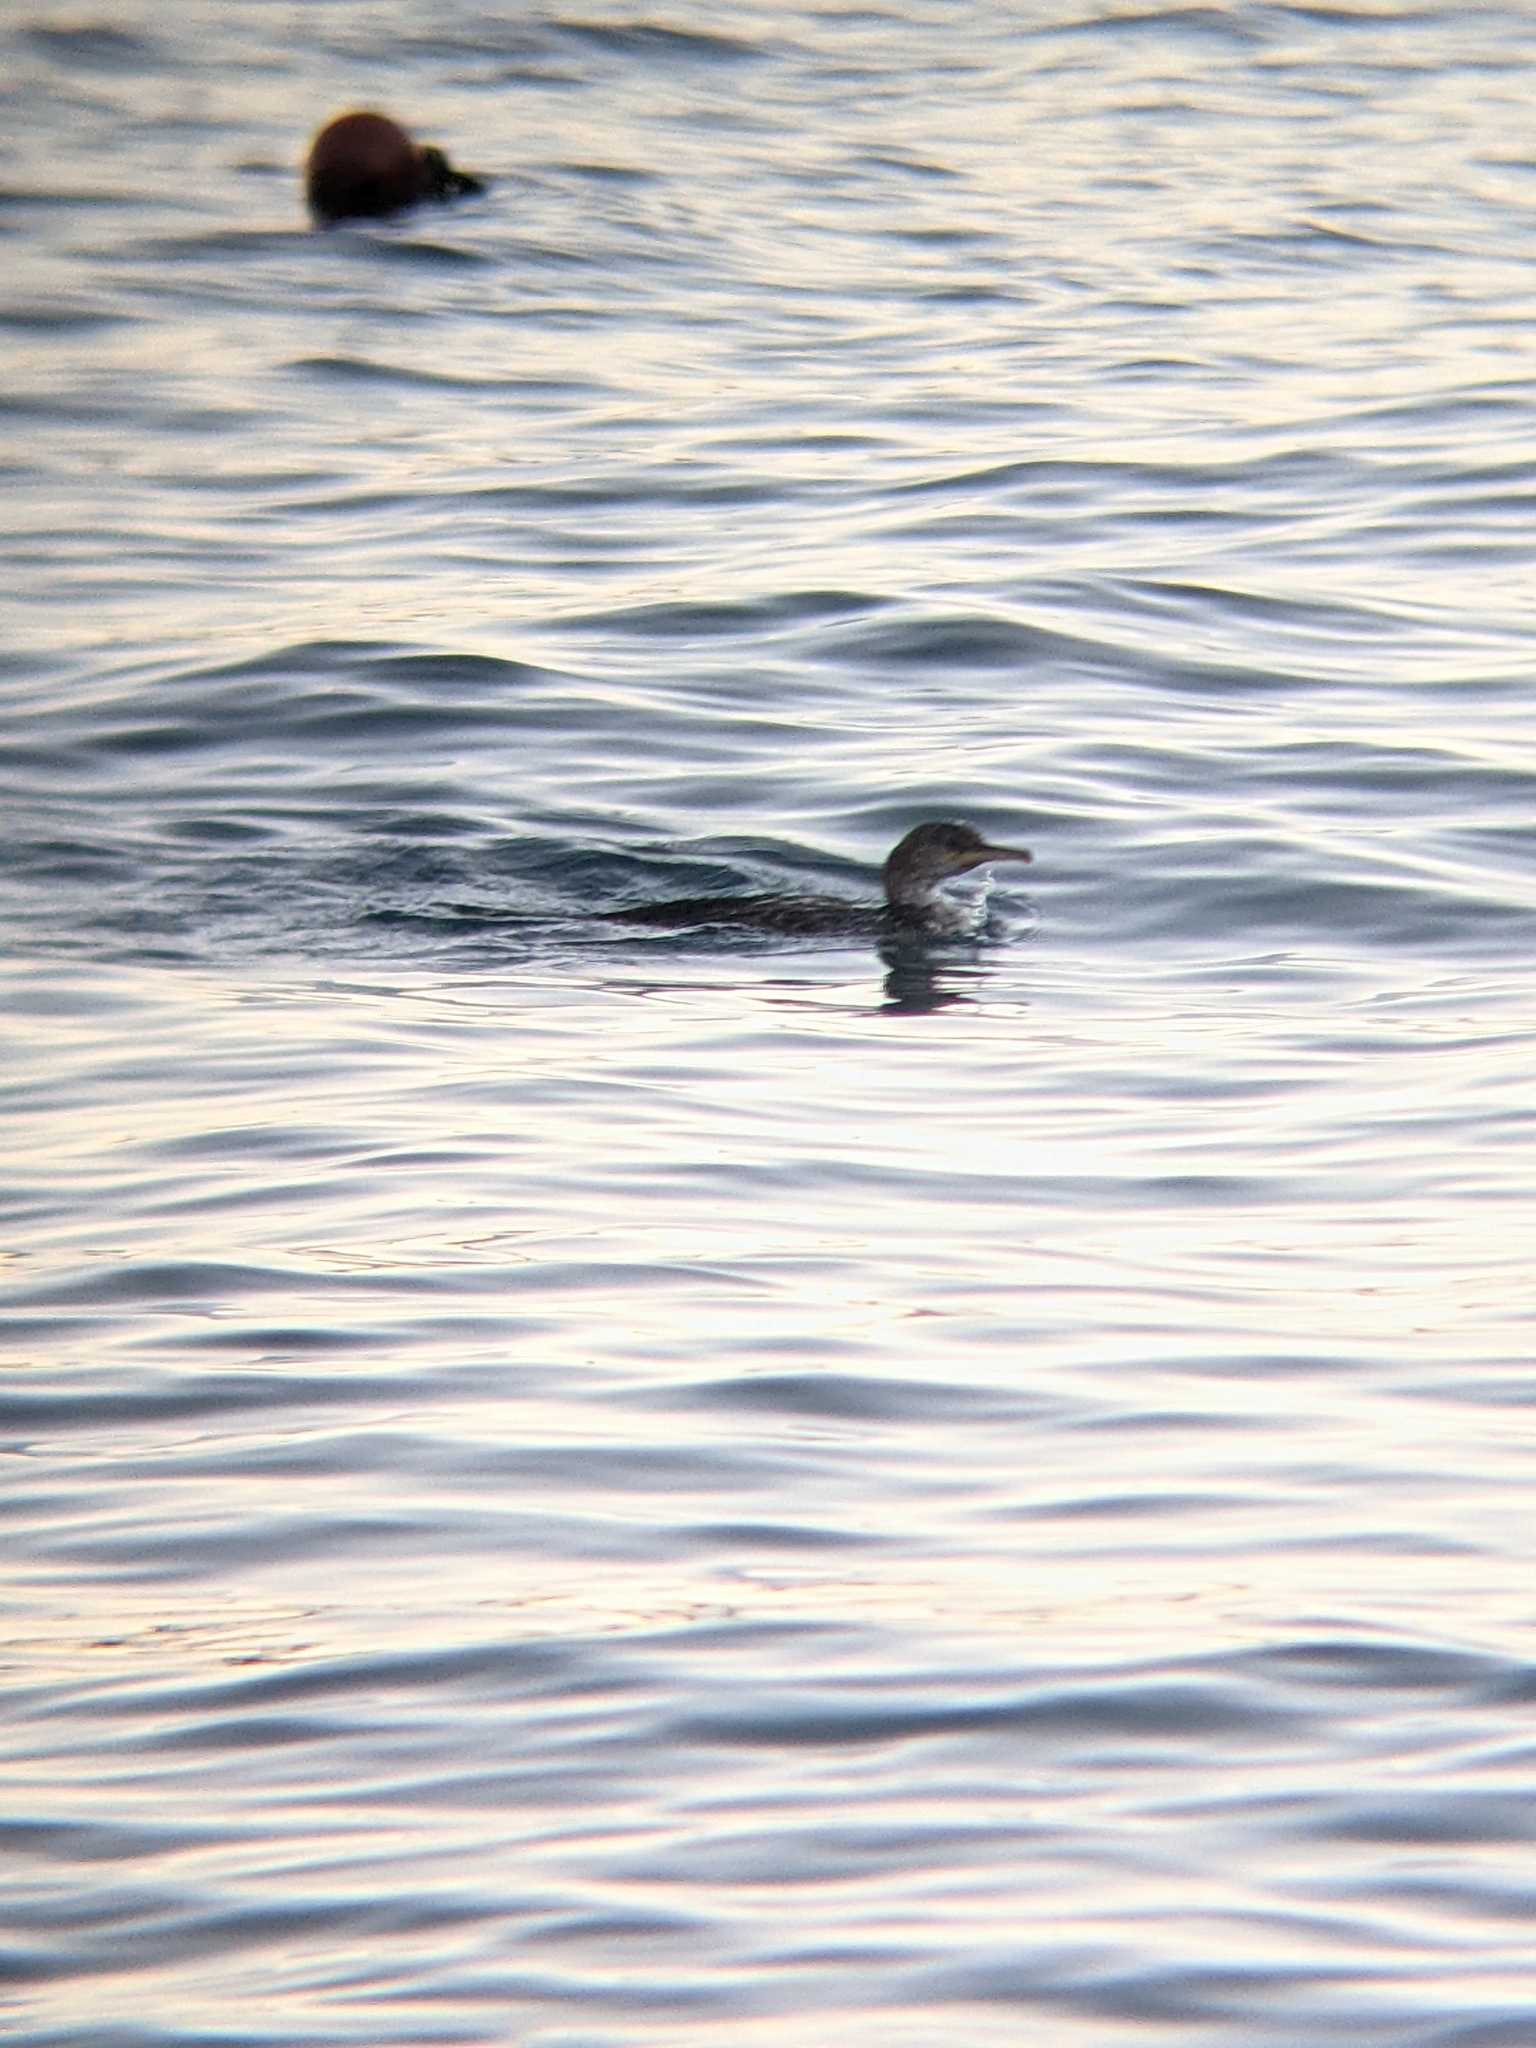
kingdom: Animalia
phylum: Chordata
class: Aves
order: Suliformes
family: Phalacrocoracidae
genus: Phalacrocorax
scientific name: Phalacrocorax aristotelis
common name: European shag
